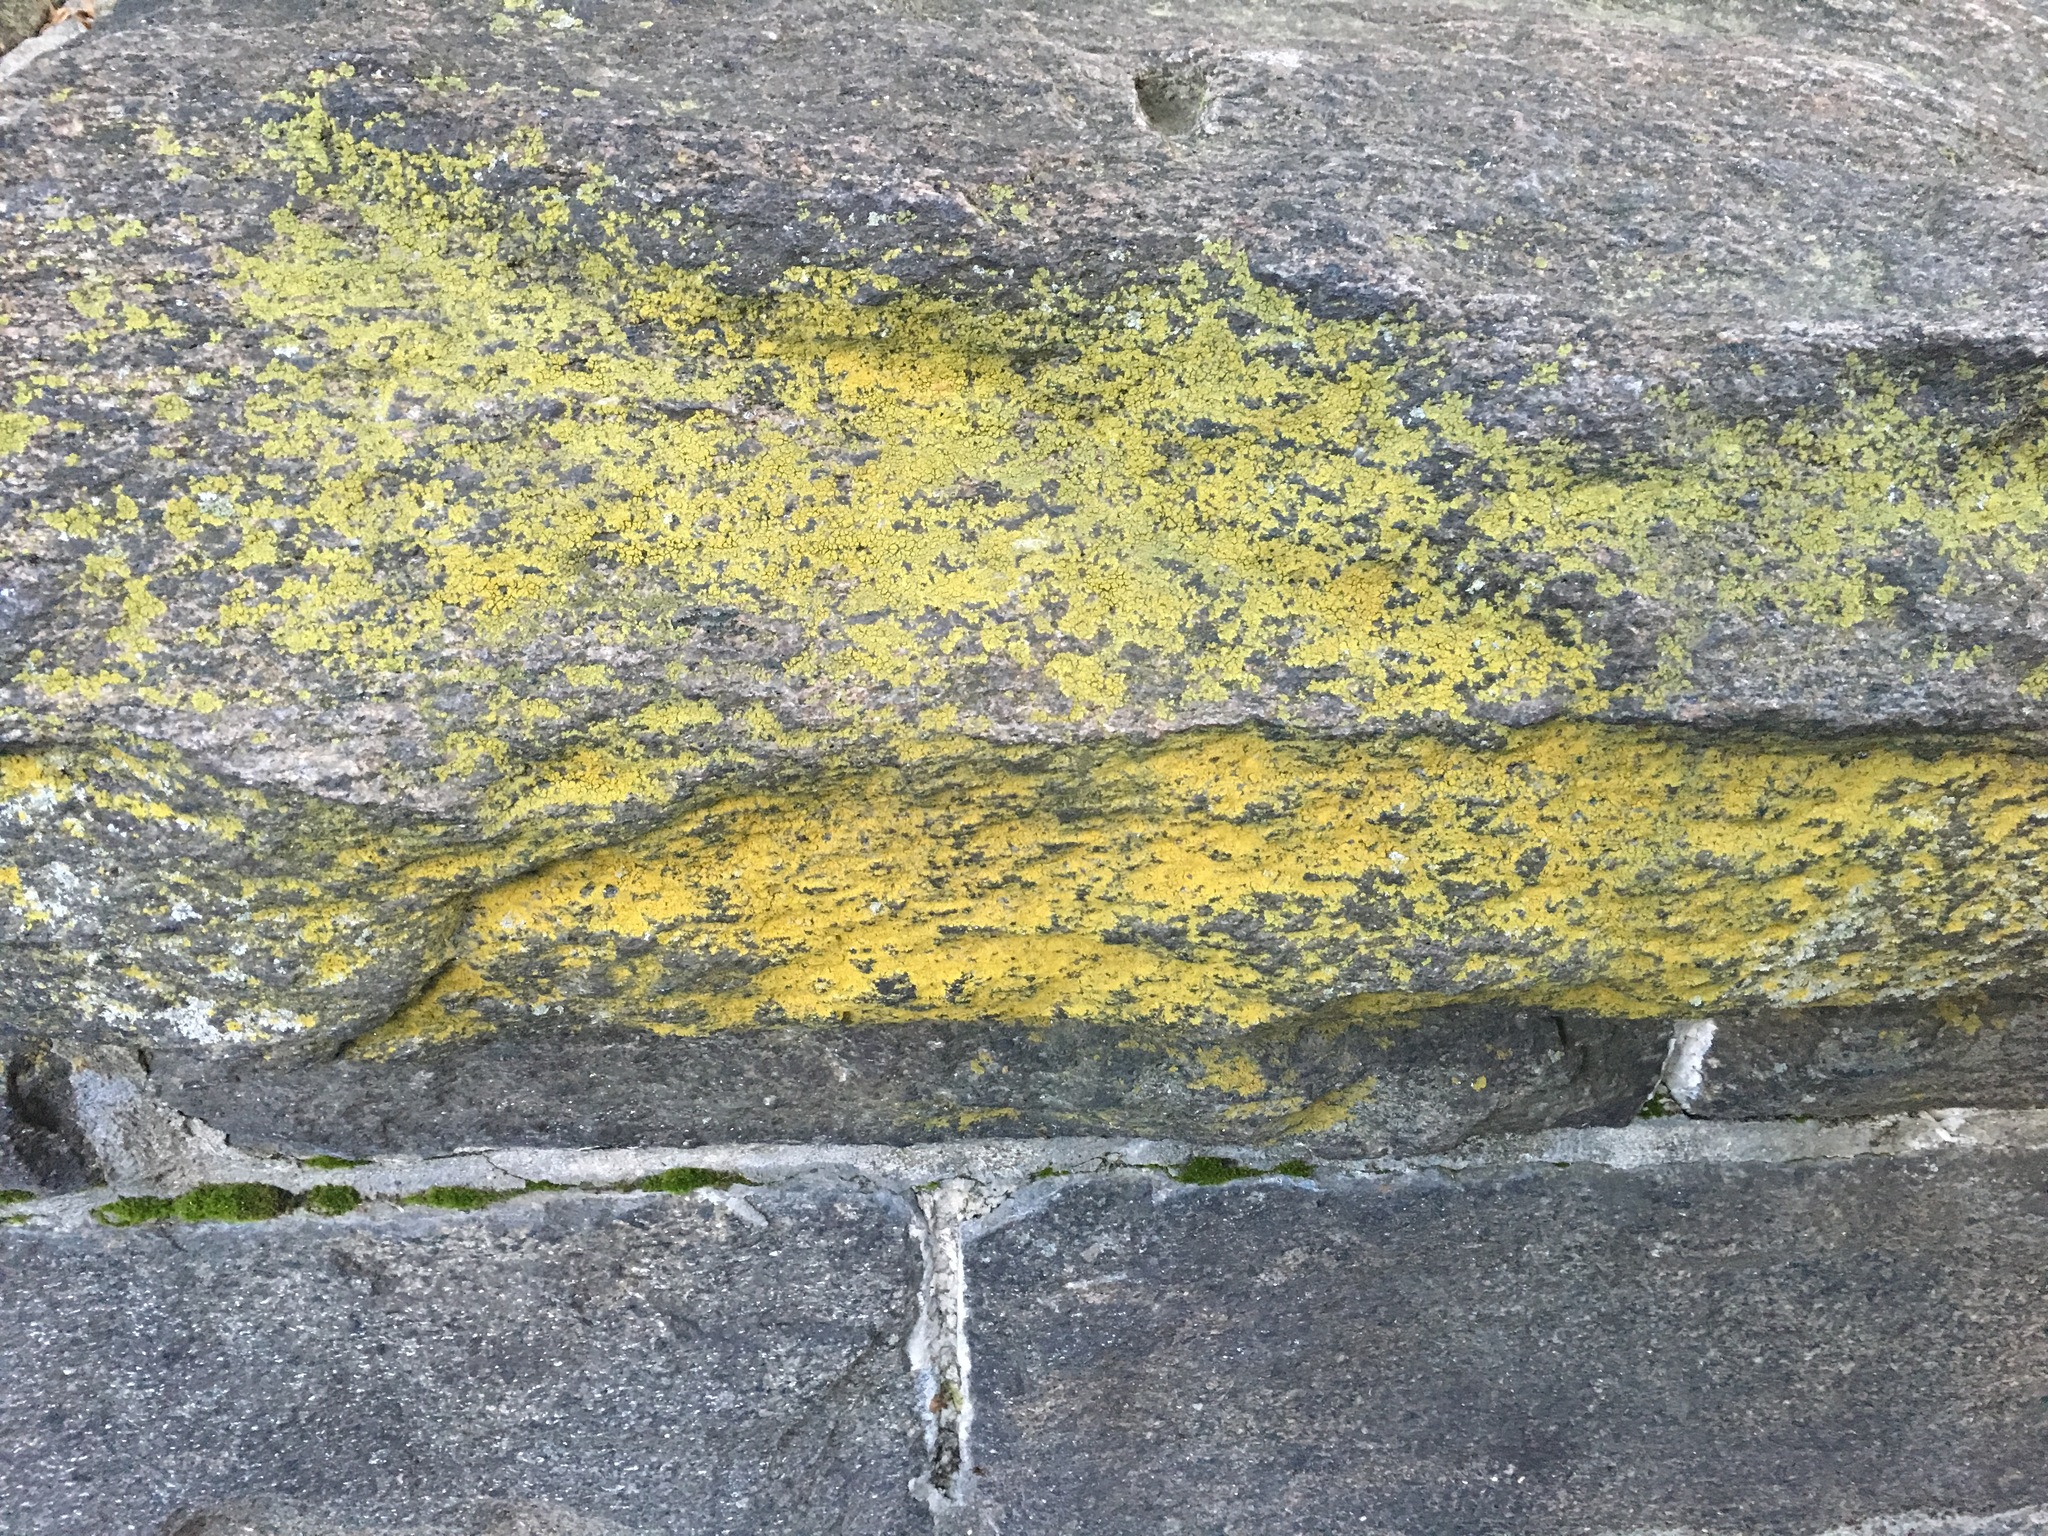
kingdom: Fungi
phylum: Ascomycota
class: Candelariomycetes
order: Candelariales
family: Candelariaceae
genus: Candelaria
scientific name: Candelaria concolor
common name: Candleflame lichen
